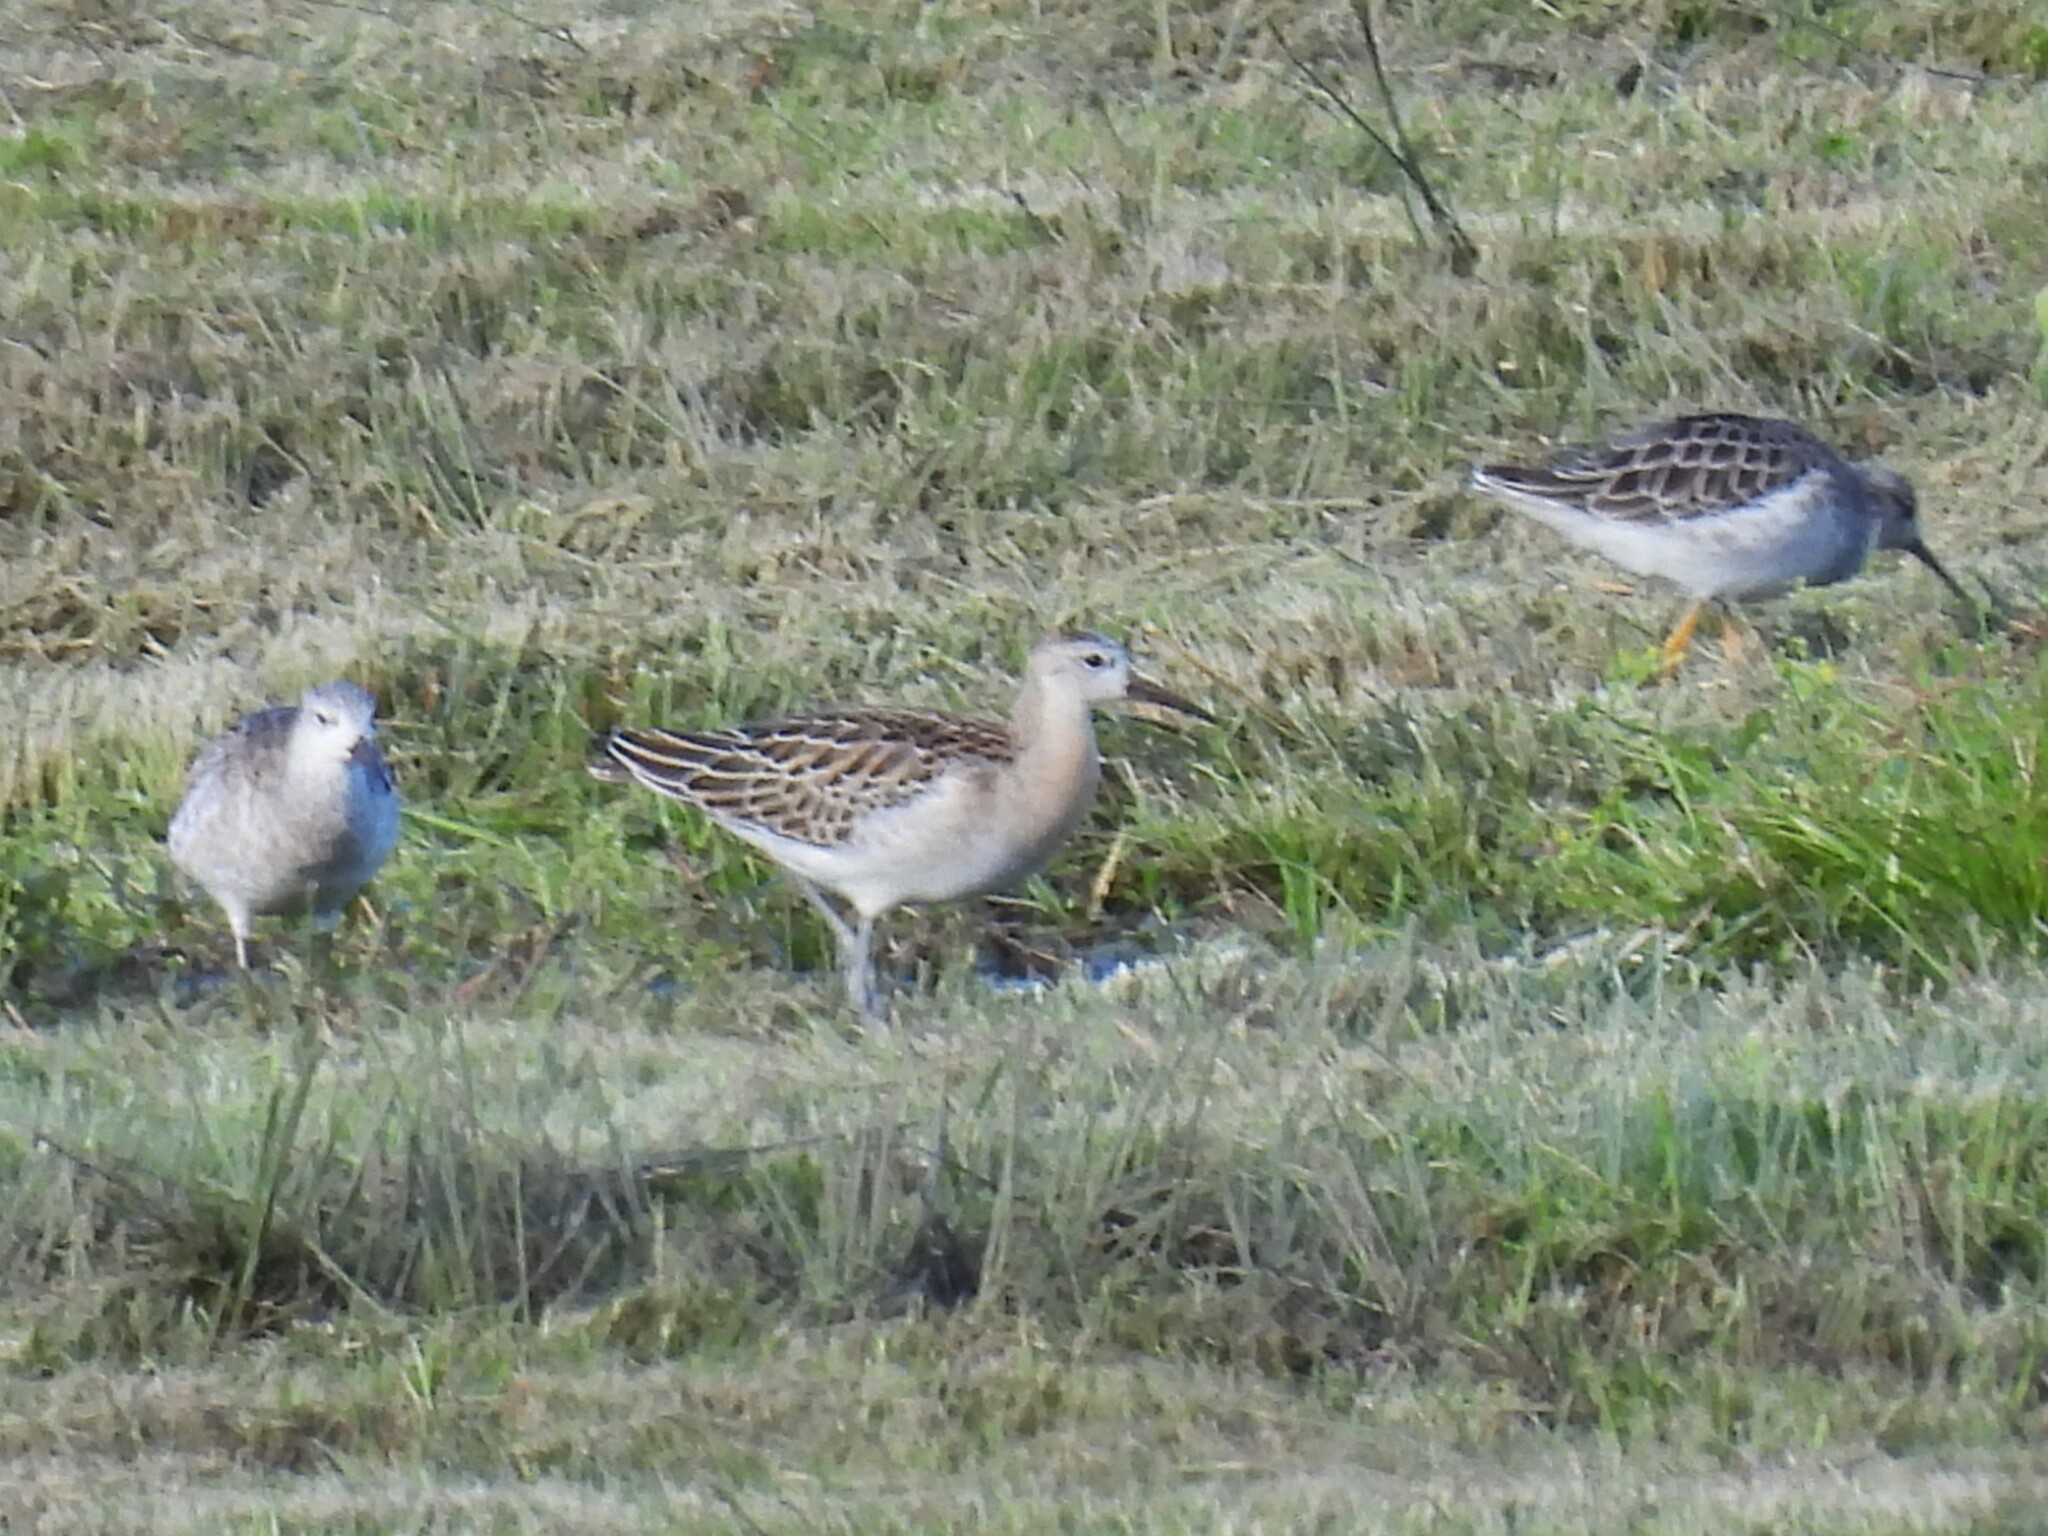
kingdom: Animalia
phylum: Chordata
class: Aves
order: Charadriiformes
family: Scolopacidae
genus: Calidris
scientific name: Calidris pugnax
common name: Ruff
